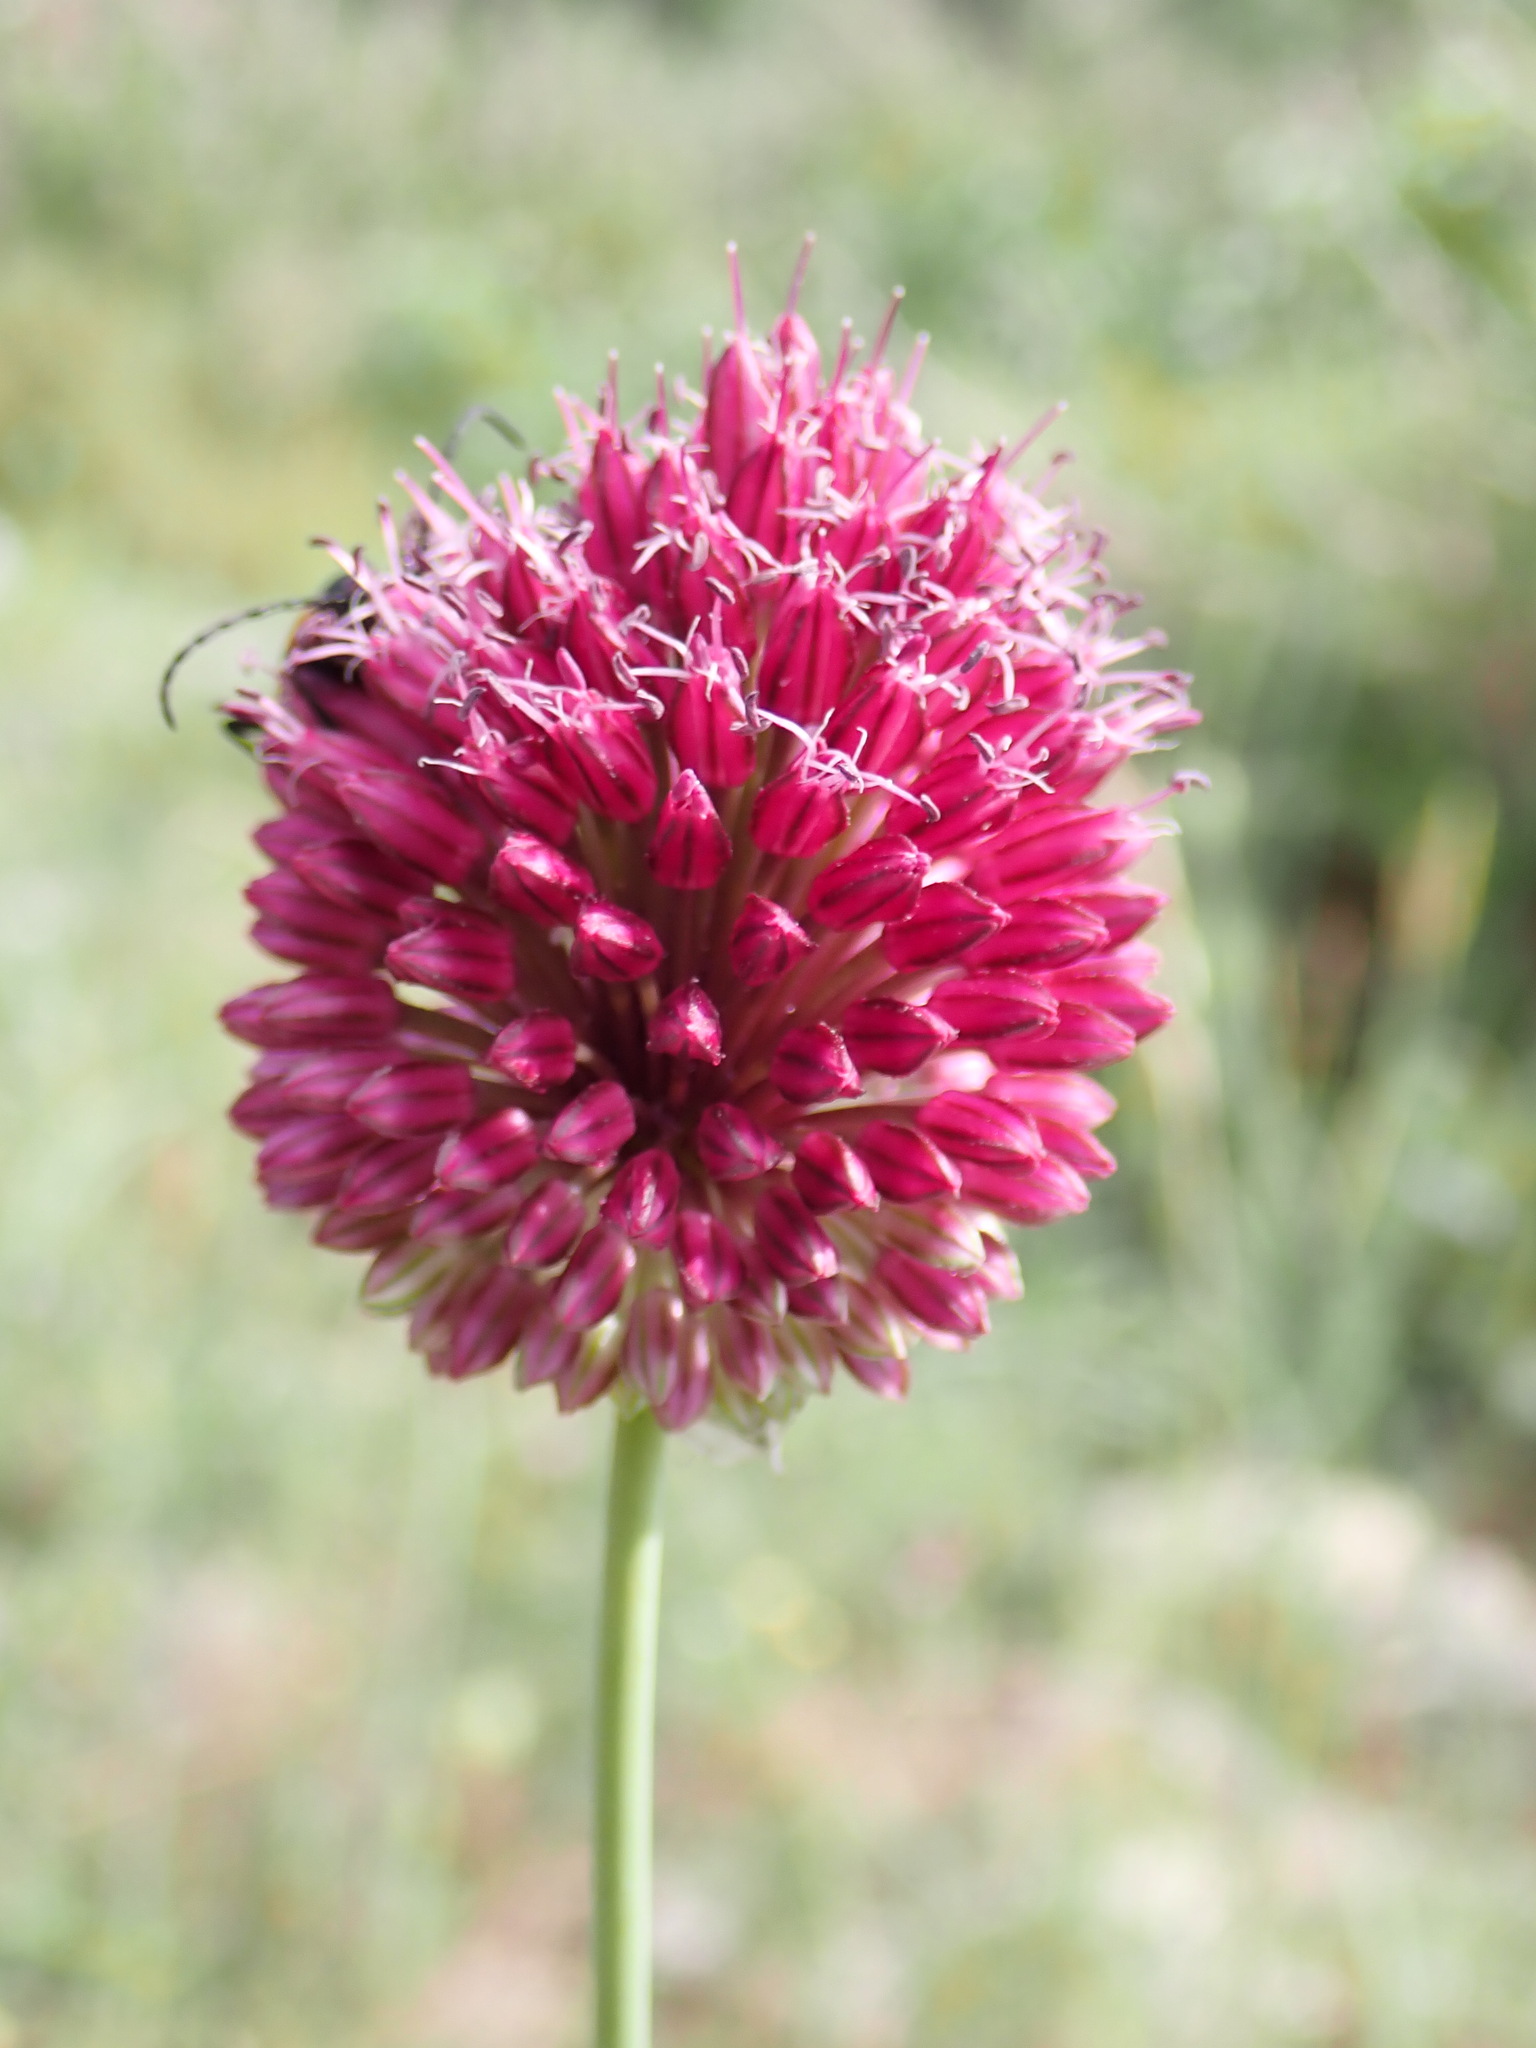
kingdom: Plantae
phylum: Tracheophyta
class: Liliopsida
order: Asparagales
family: Amaryllidaceae
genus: Allium
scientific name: Allium sphaerocephalon
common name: Round-headed leek
